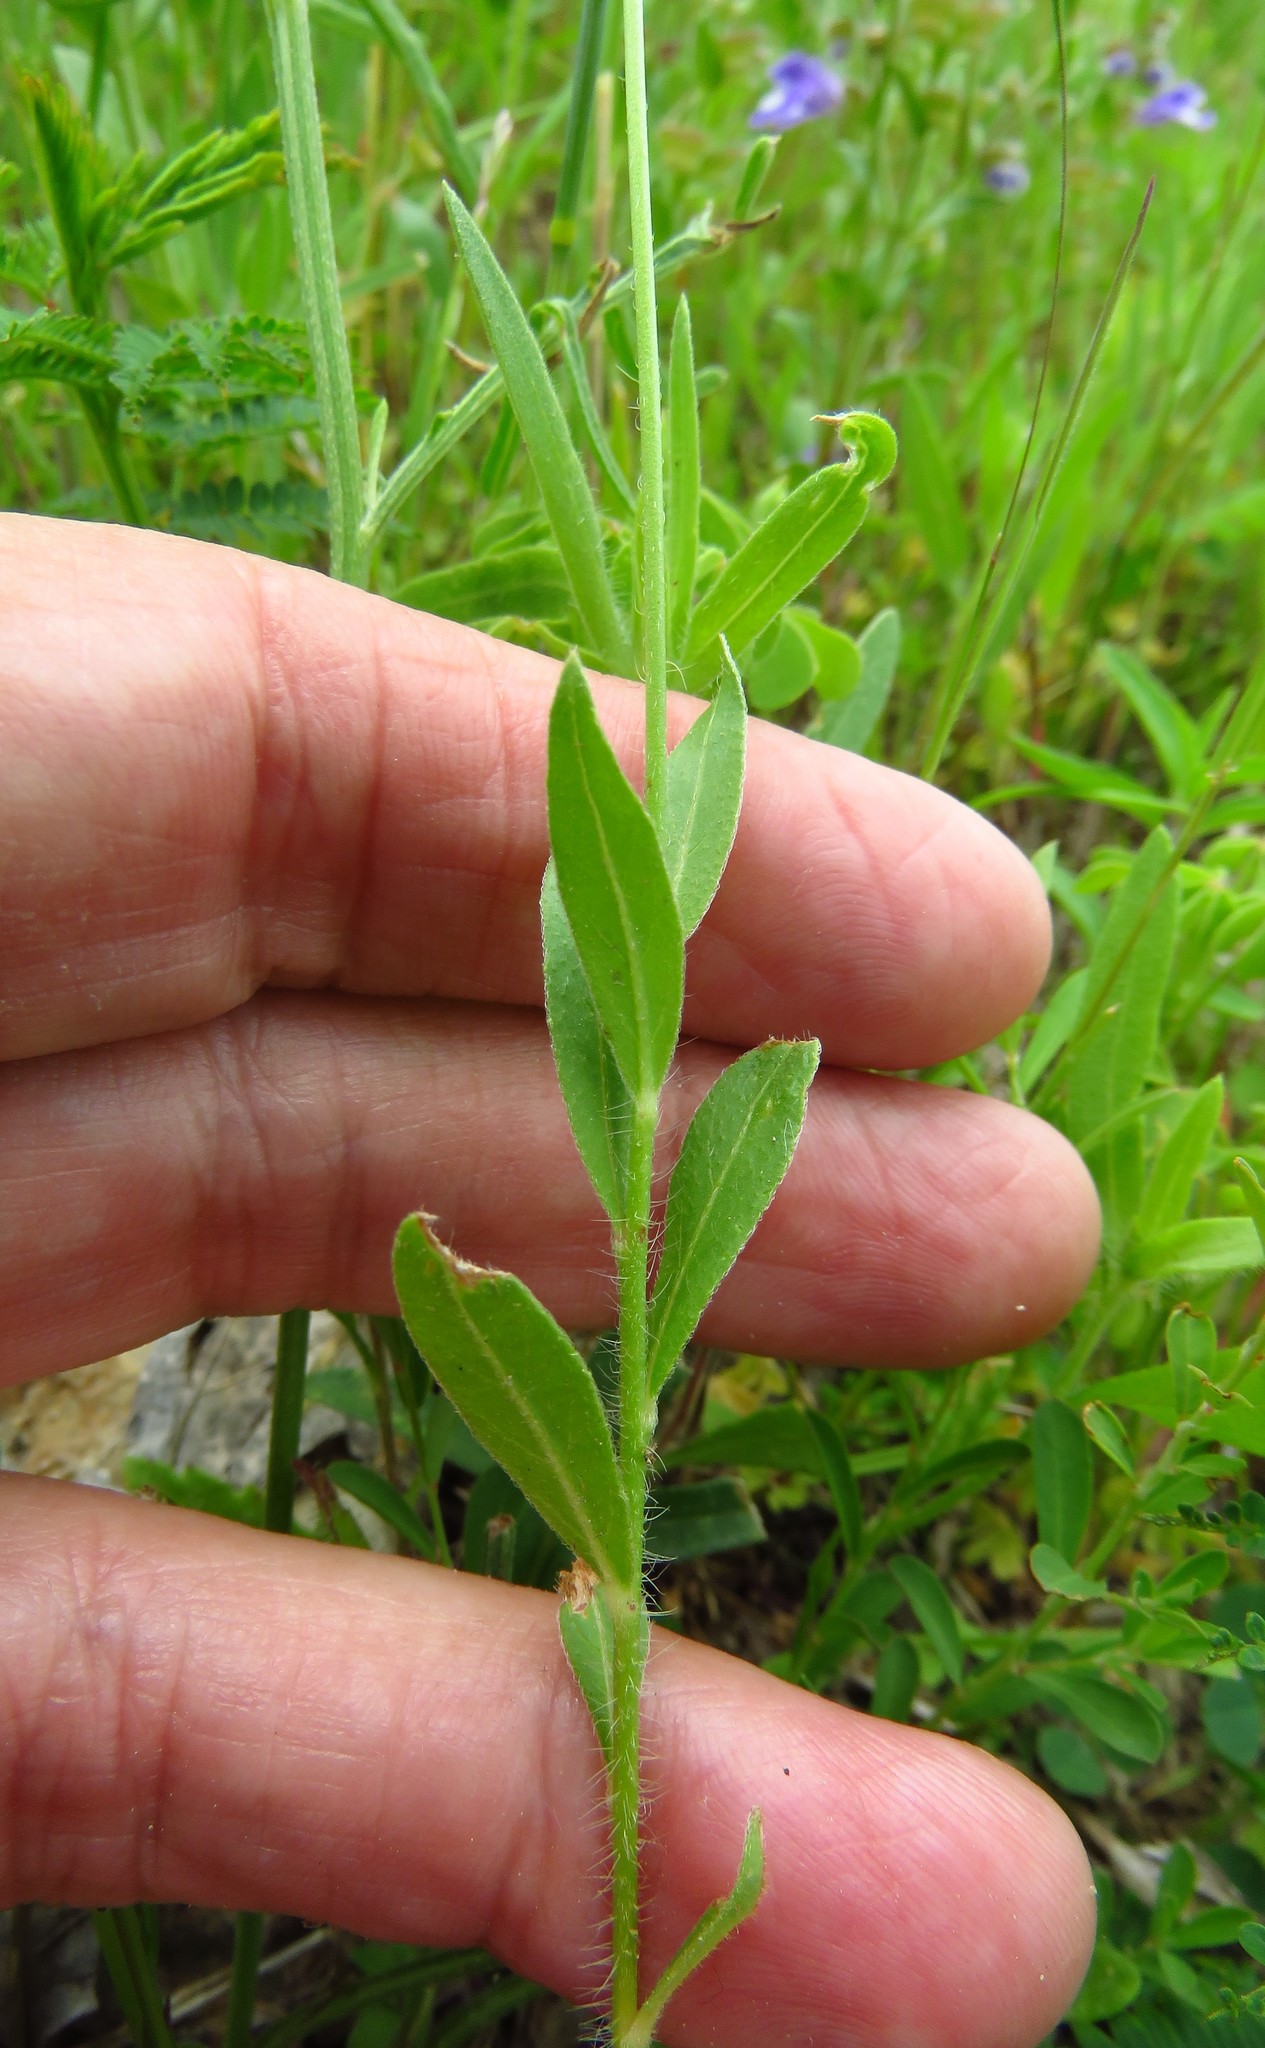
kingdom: Plantae
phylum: Tracheophyta
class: Magnoliopsida
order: Myrtales
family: Onagraceae
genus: Oenothera
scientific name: Oenothera suffulta
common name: Kisses
